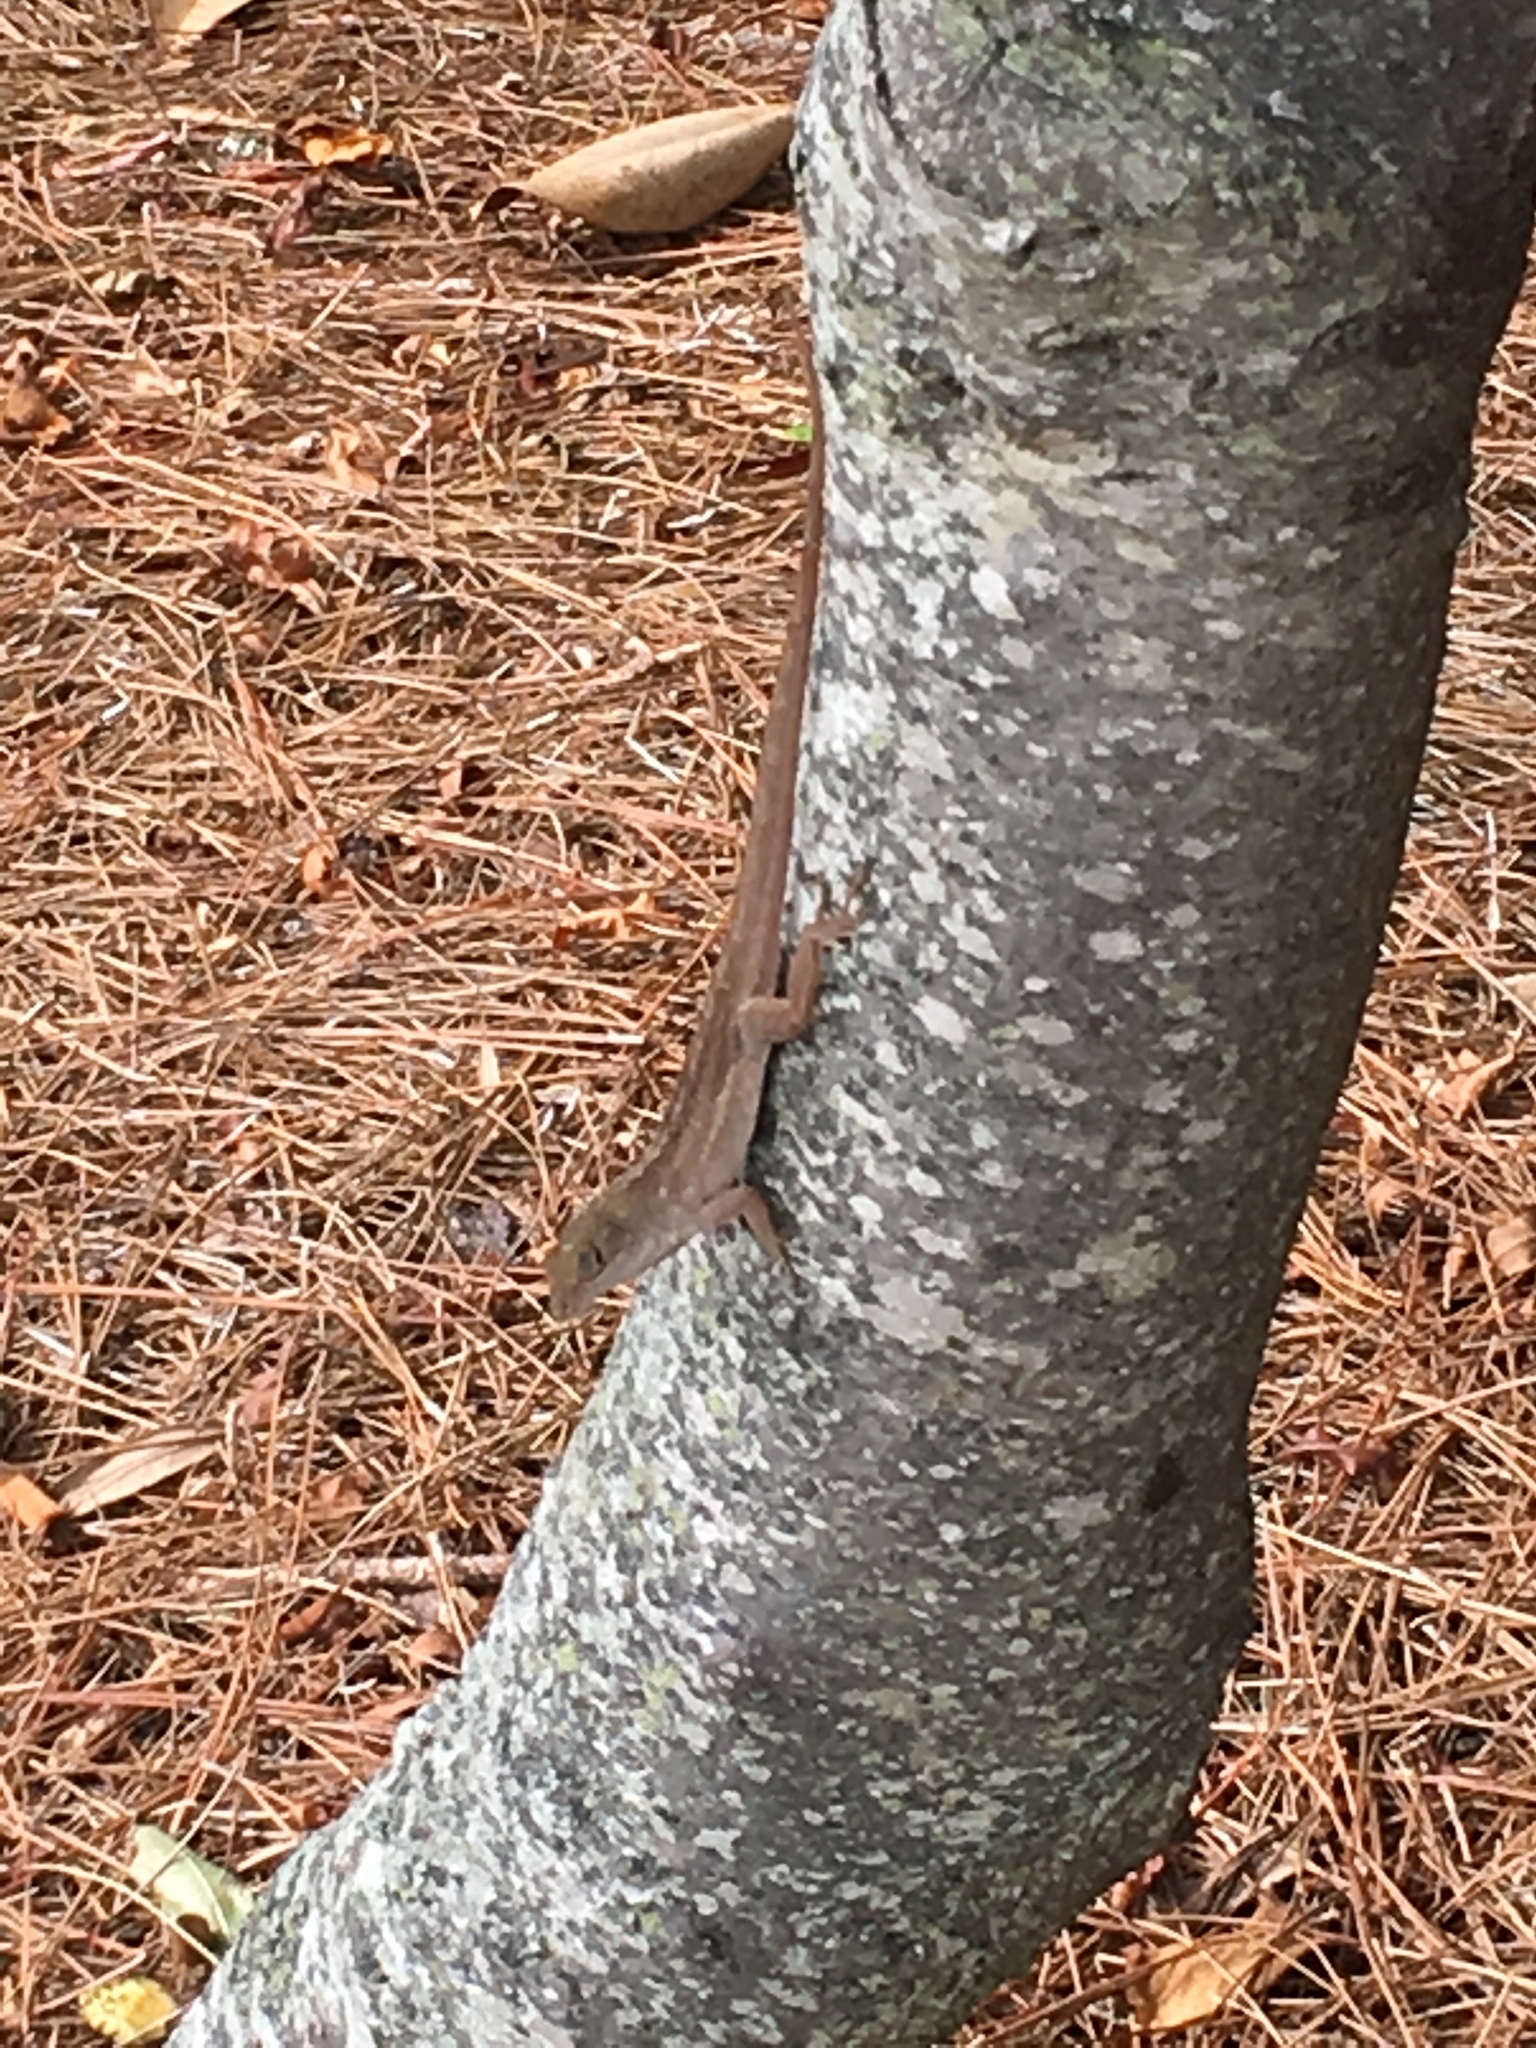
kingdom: Animalia
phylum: Chordata
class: Squamata
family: Dactyloidae
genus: Anolis
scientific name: Anolis sagrei
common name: Brown anole
